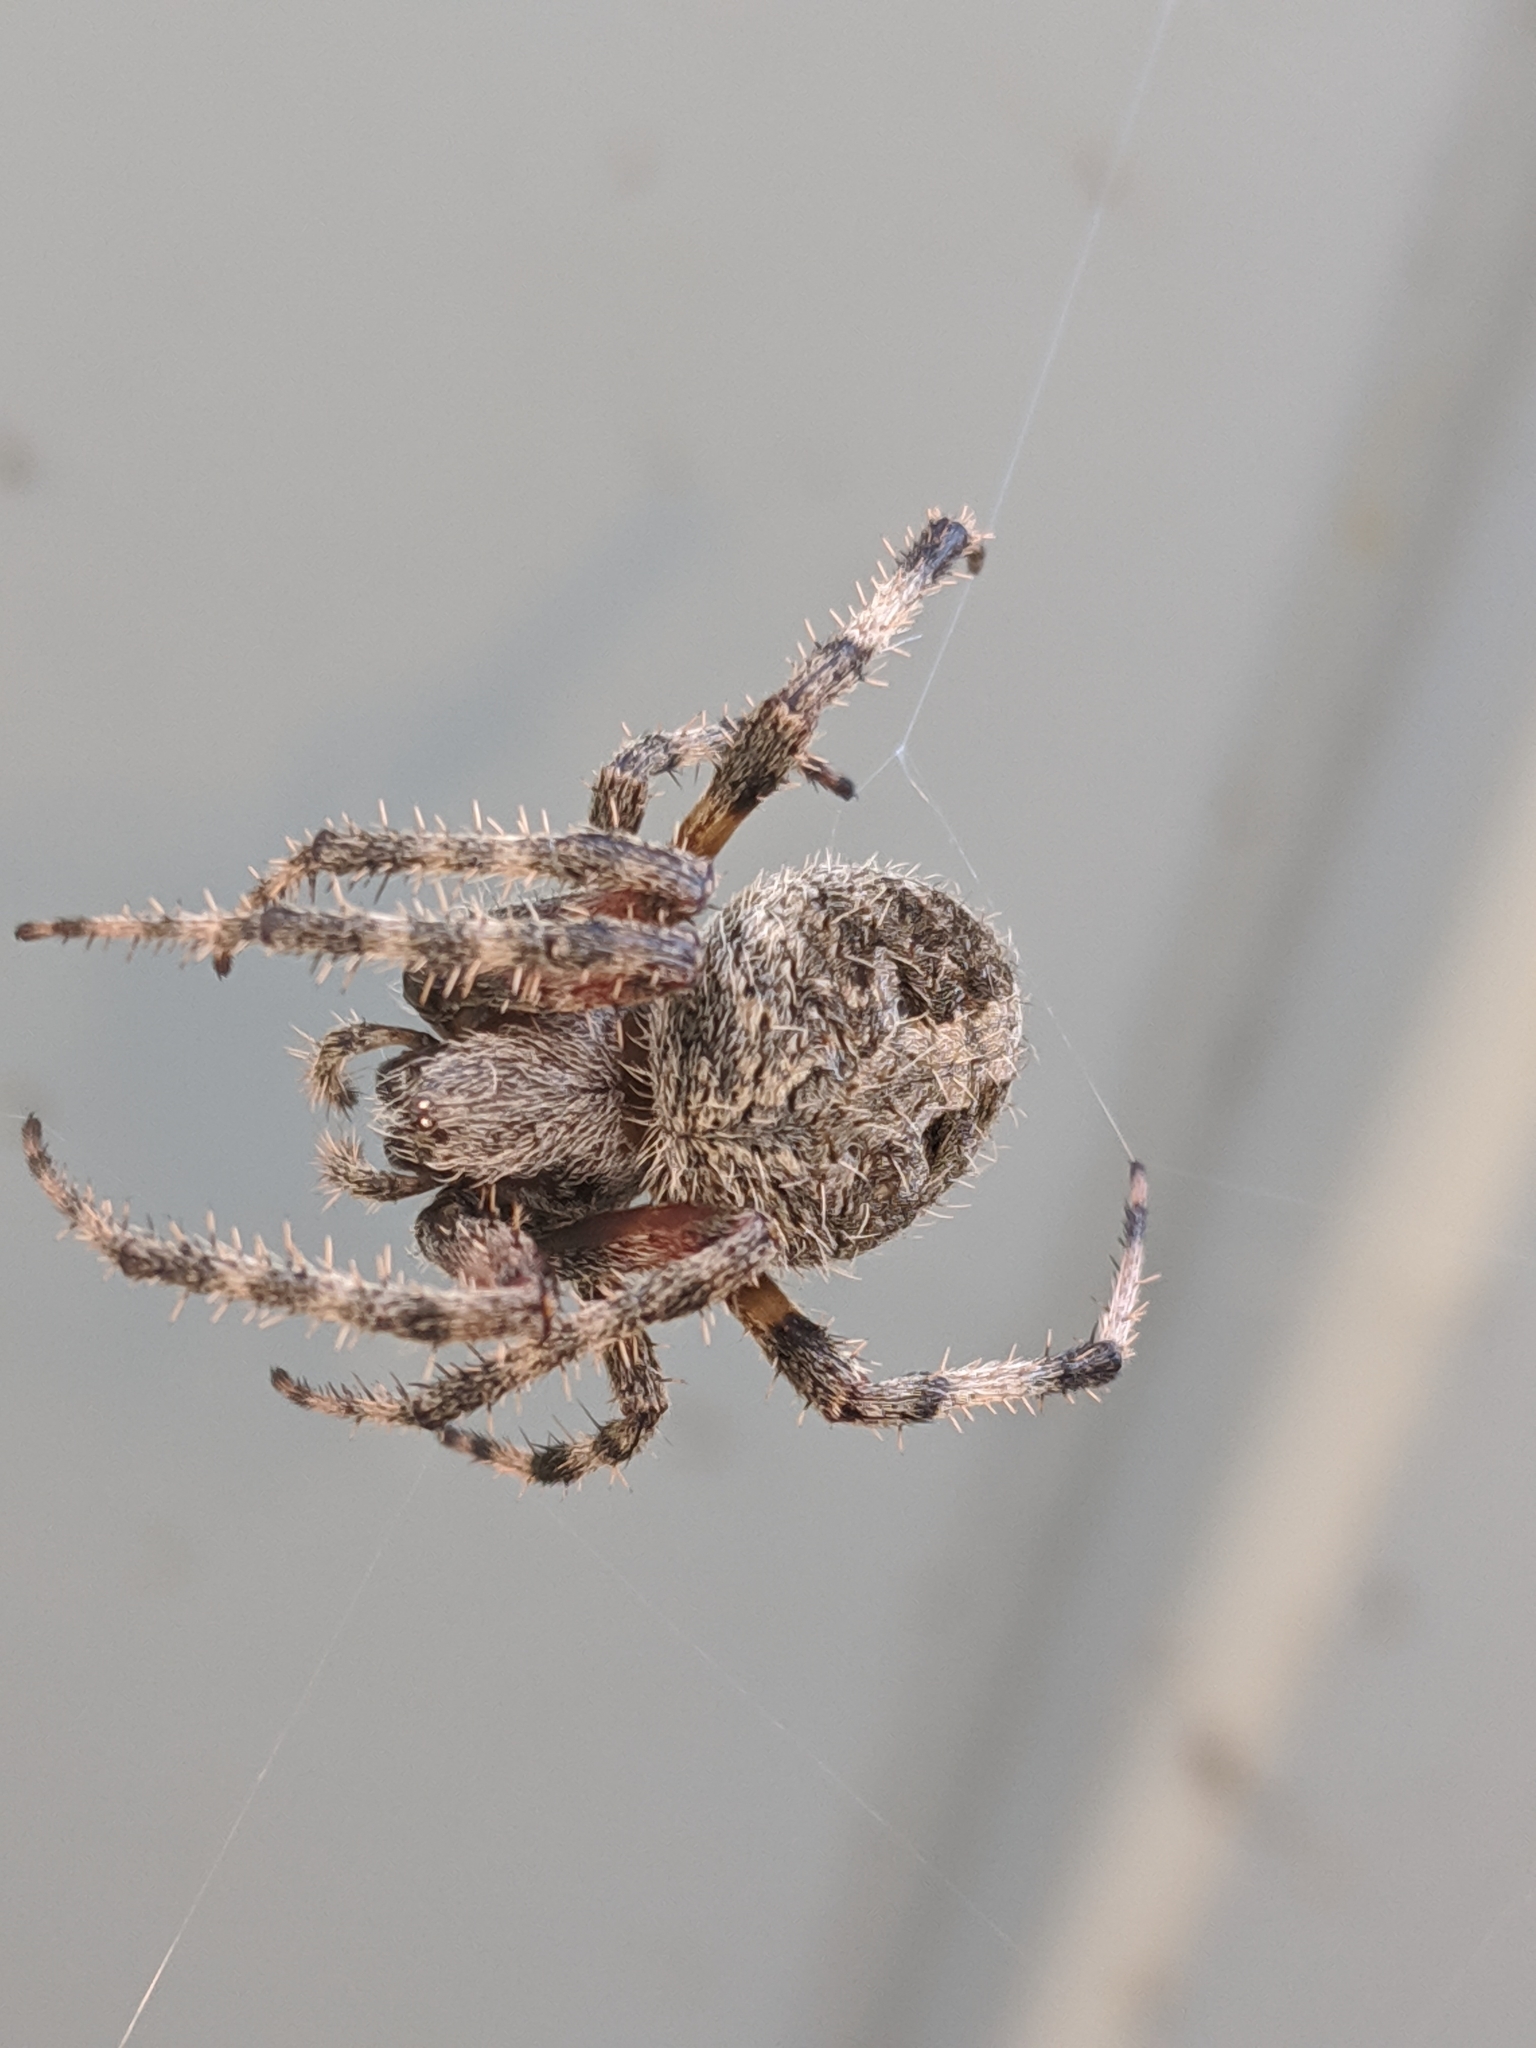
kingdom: Animalia
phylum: Arthropoda
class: Arachnida
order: Araneae
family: Araneidae
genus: Neoscona
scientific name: Neoscona crucifera
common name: Spotted orbweaver
